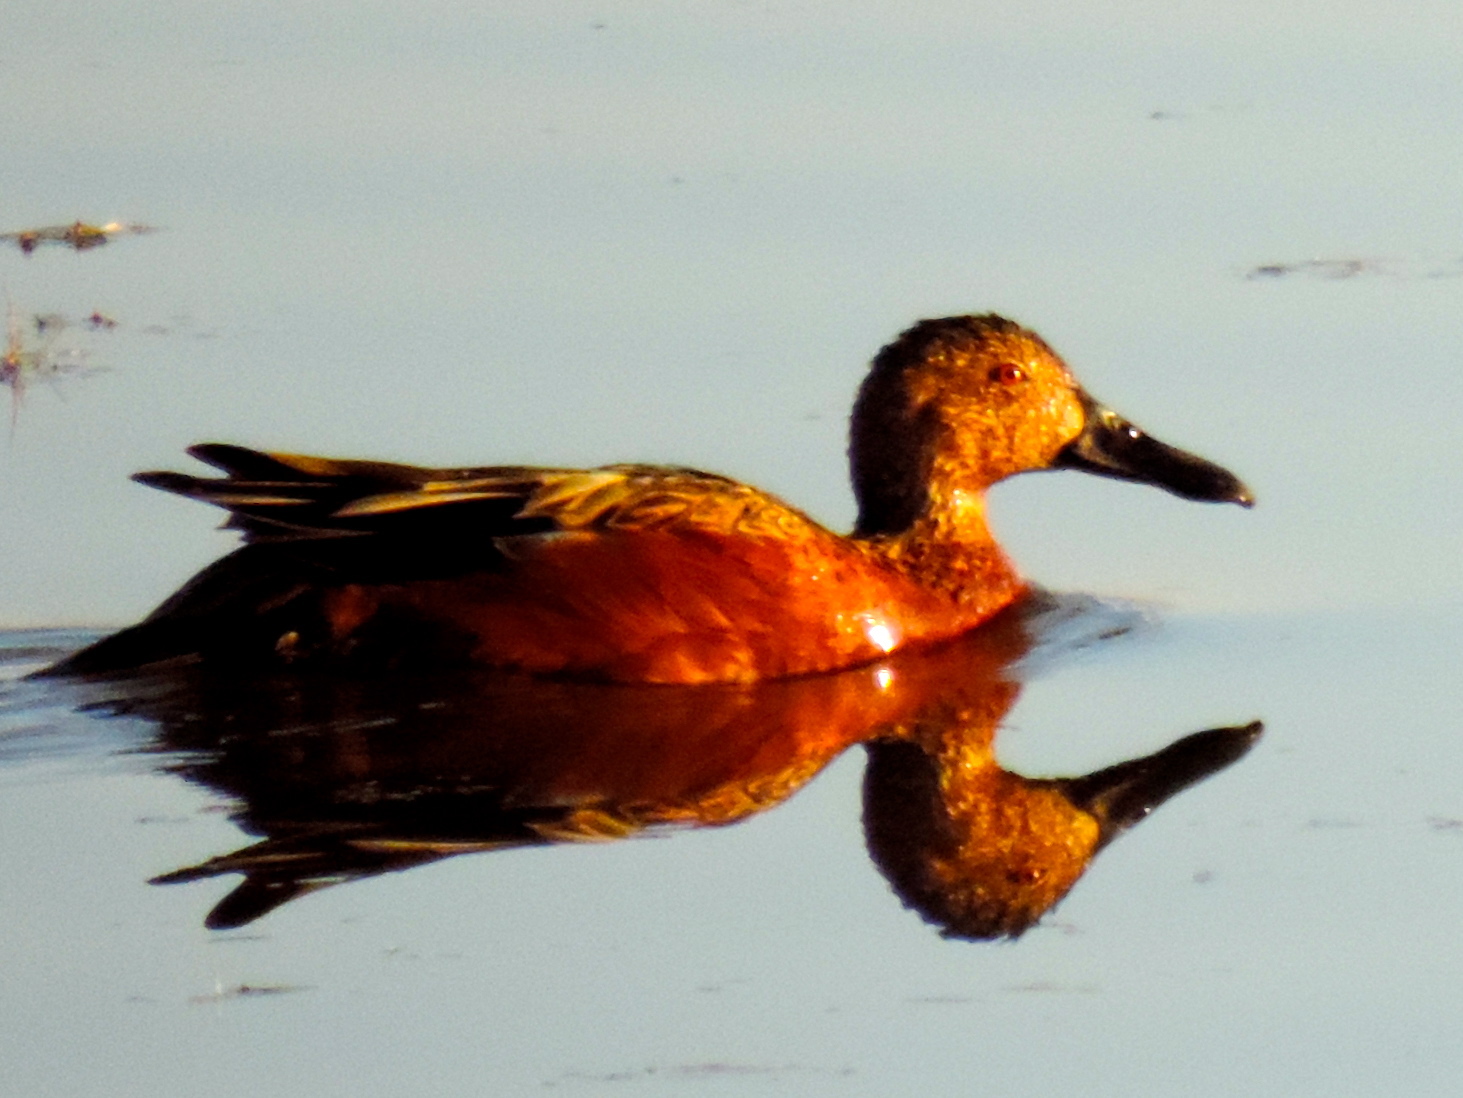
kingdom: Animalia
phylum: Chordata
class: Aves
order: Anseriformes
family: Anatidae
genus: Spatula
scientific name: Spatula cyanoptera
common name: Cinnamon teal
